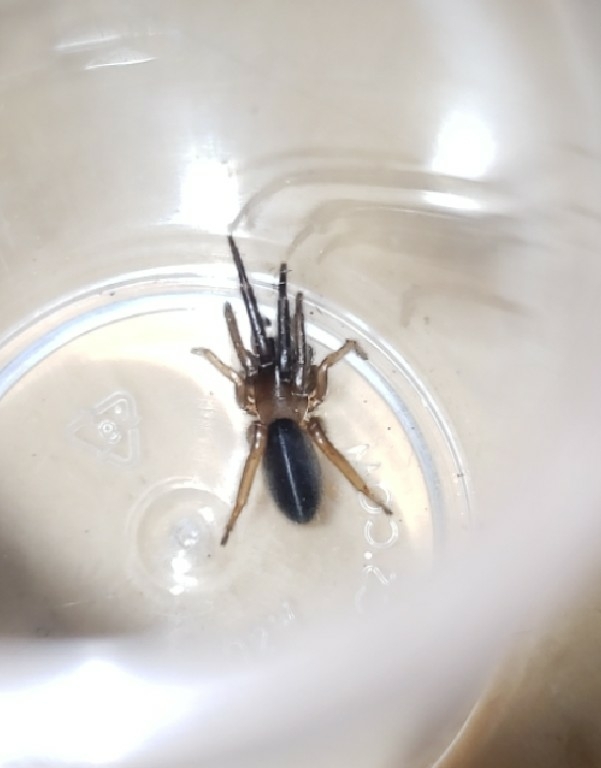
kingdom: Animalia
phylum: Arthropoda
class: Arachnida
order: Araneae
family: Segestriidae
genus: Ariadna
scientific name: Ariadna bicolor
